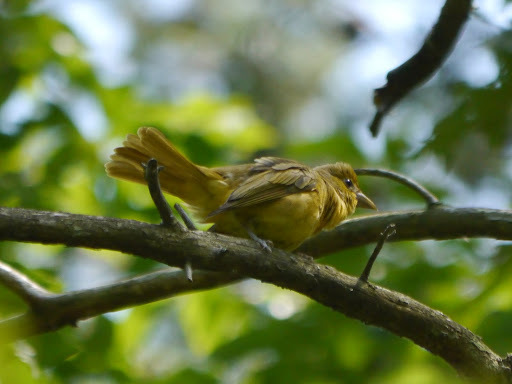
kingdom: Animalia
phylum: Chordata
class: Aves
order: Passeriformes
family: Cardinalidae
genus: Piranga
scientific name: Piranga rubra
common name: Summer tanager
